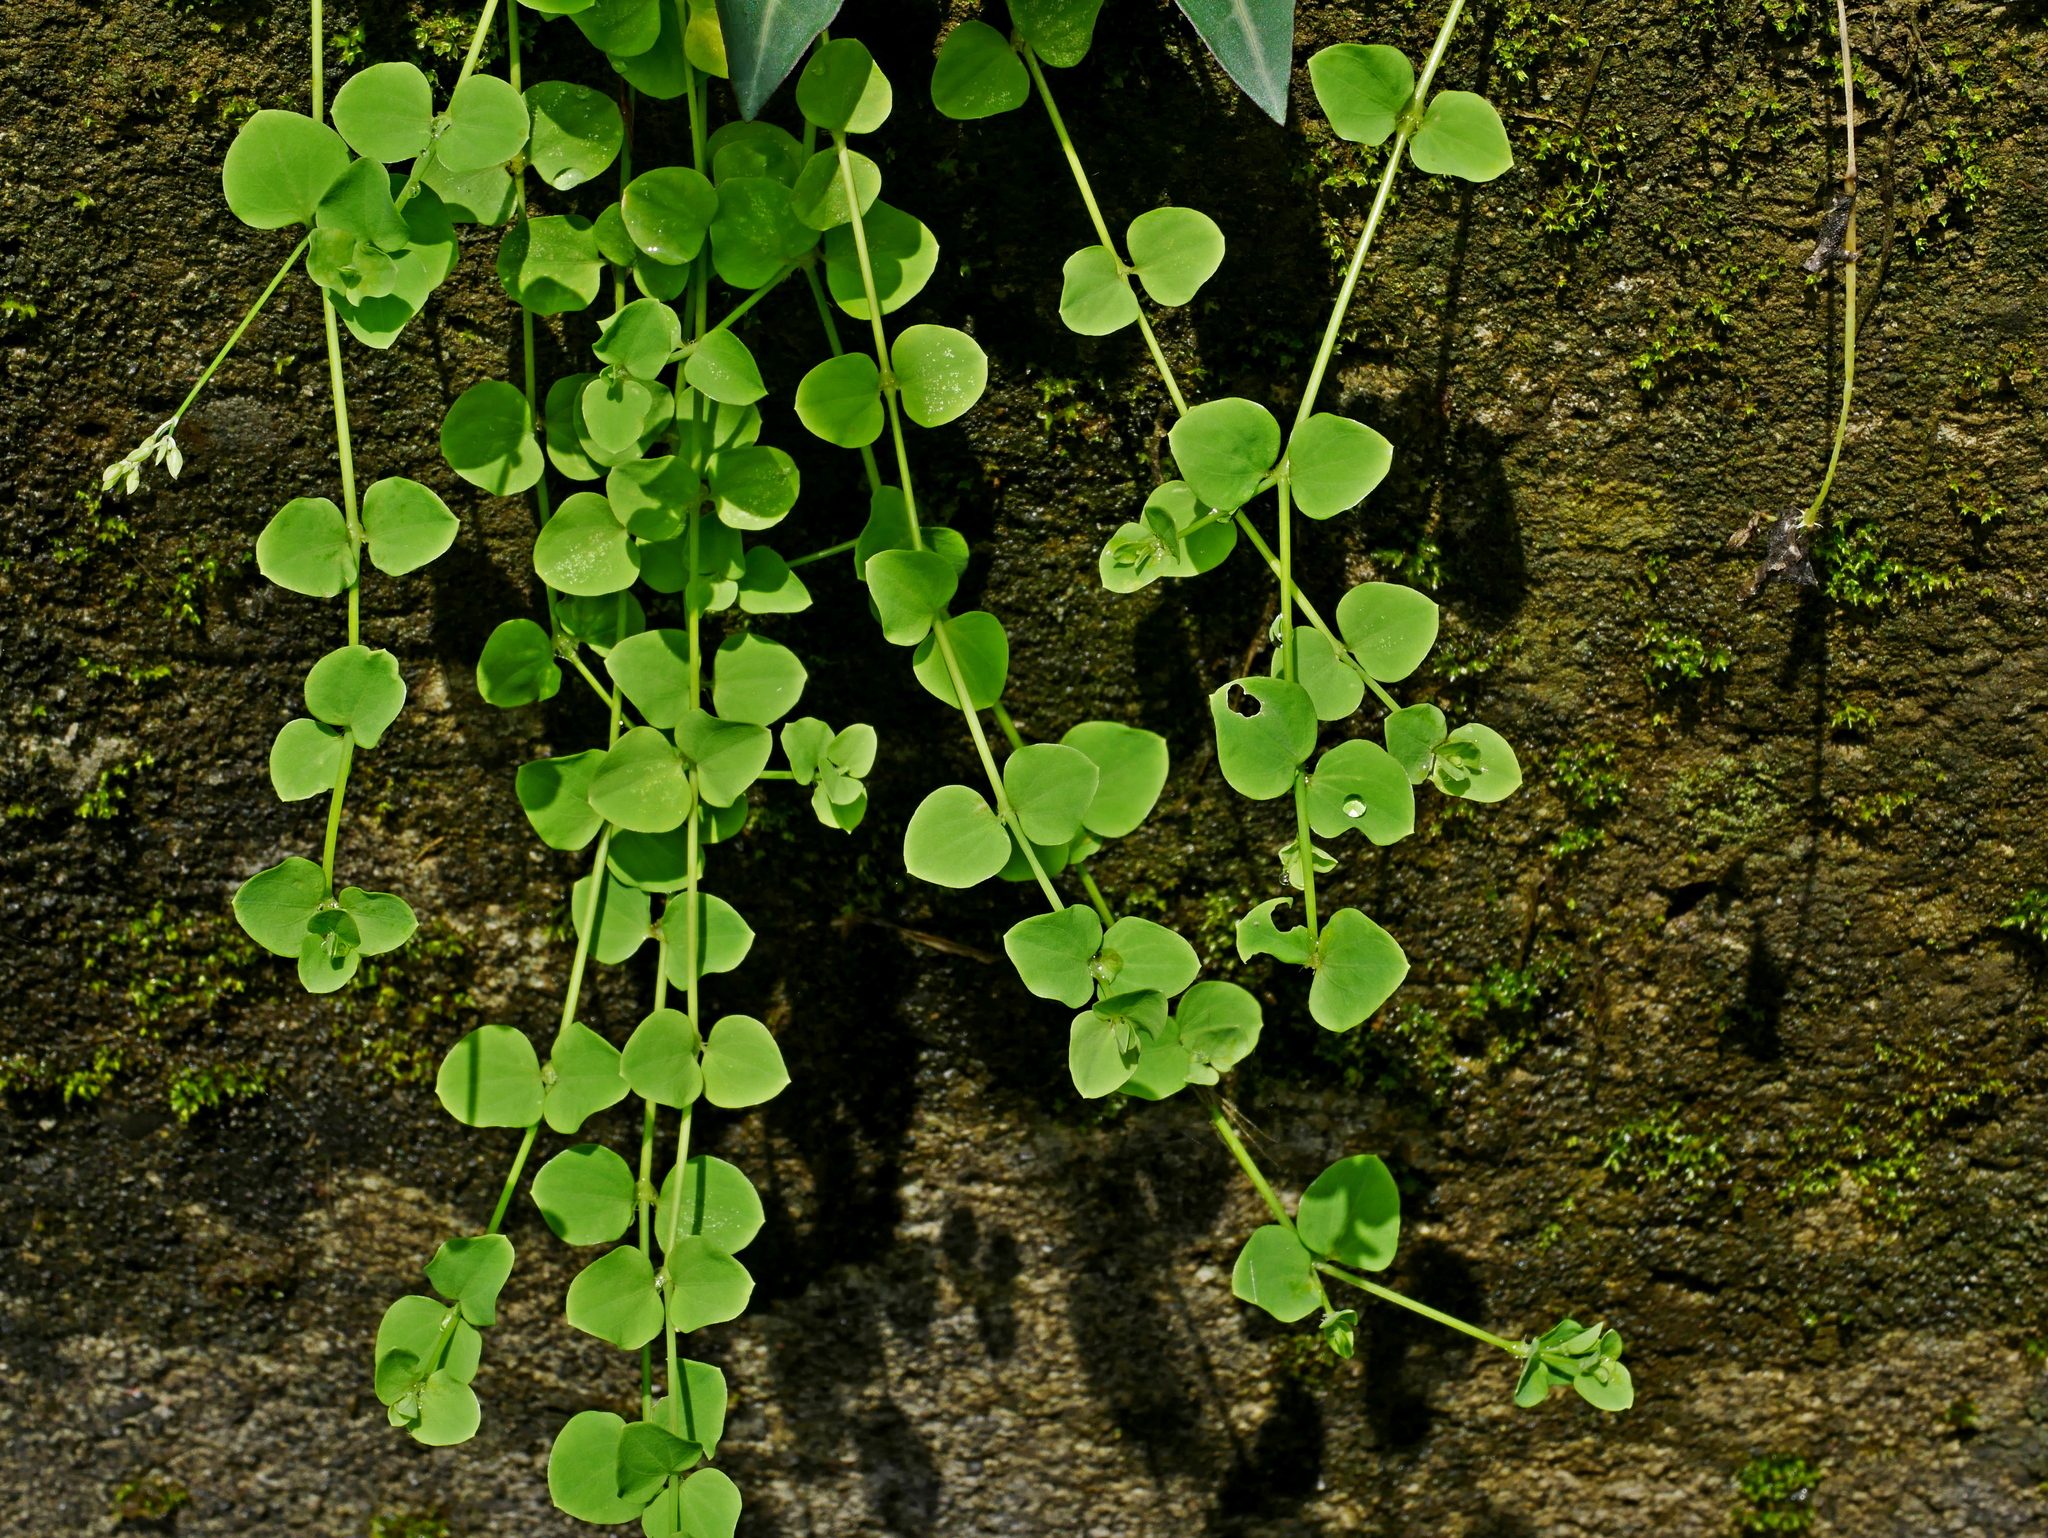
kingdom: Plantae
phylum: Tracheophyta
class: Magnoliopsida
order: Caryophyllales
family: Caryophyllaceae
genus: Drymaria
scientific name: Drymaria cordata
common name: Whitesnow
